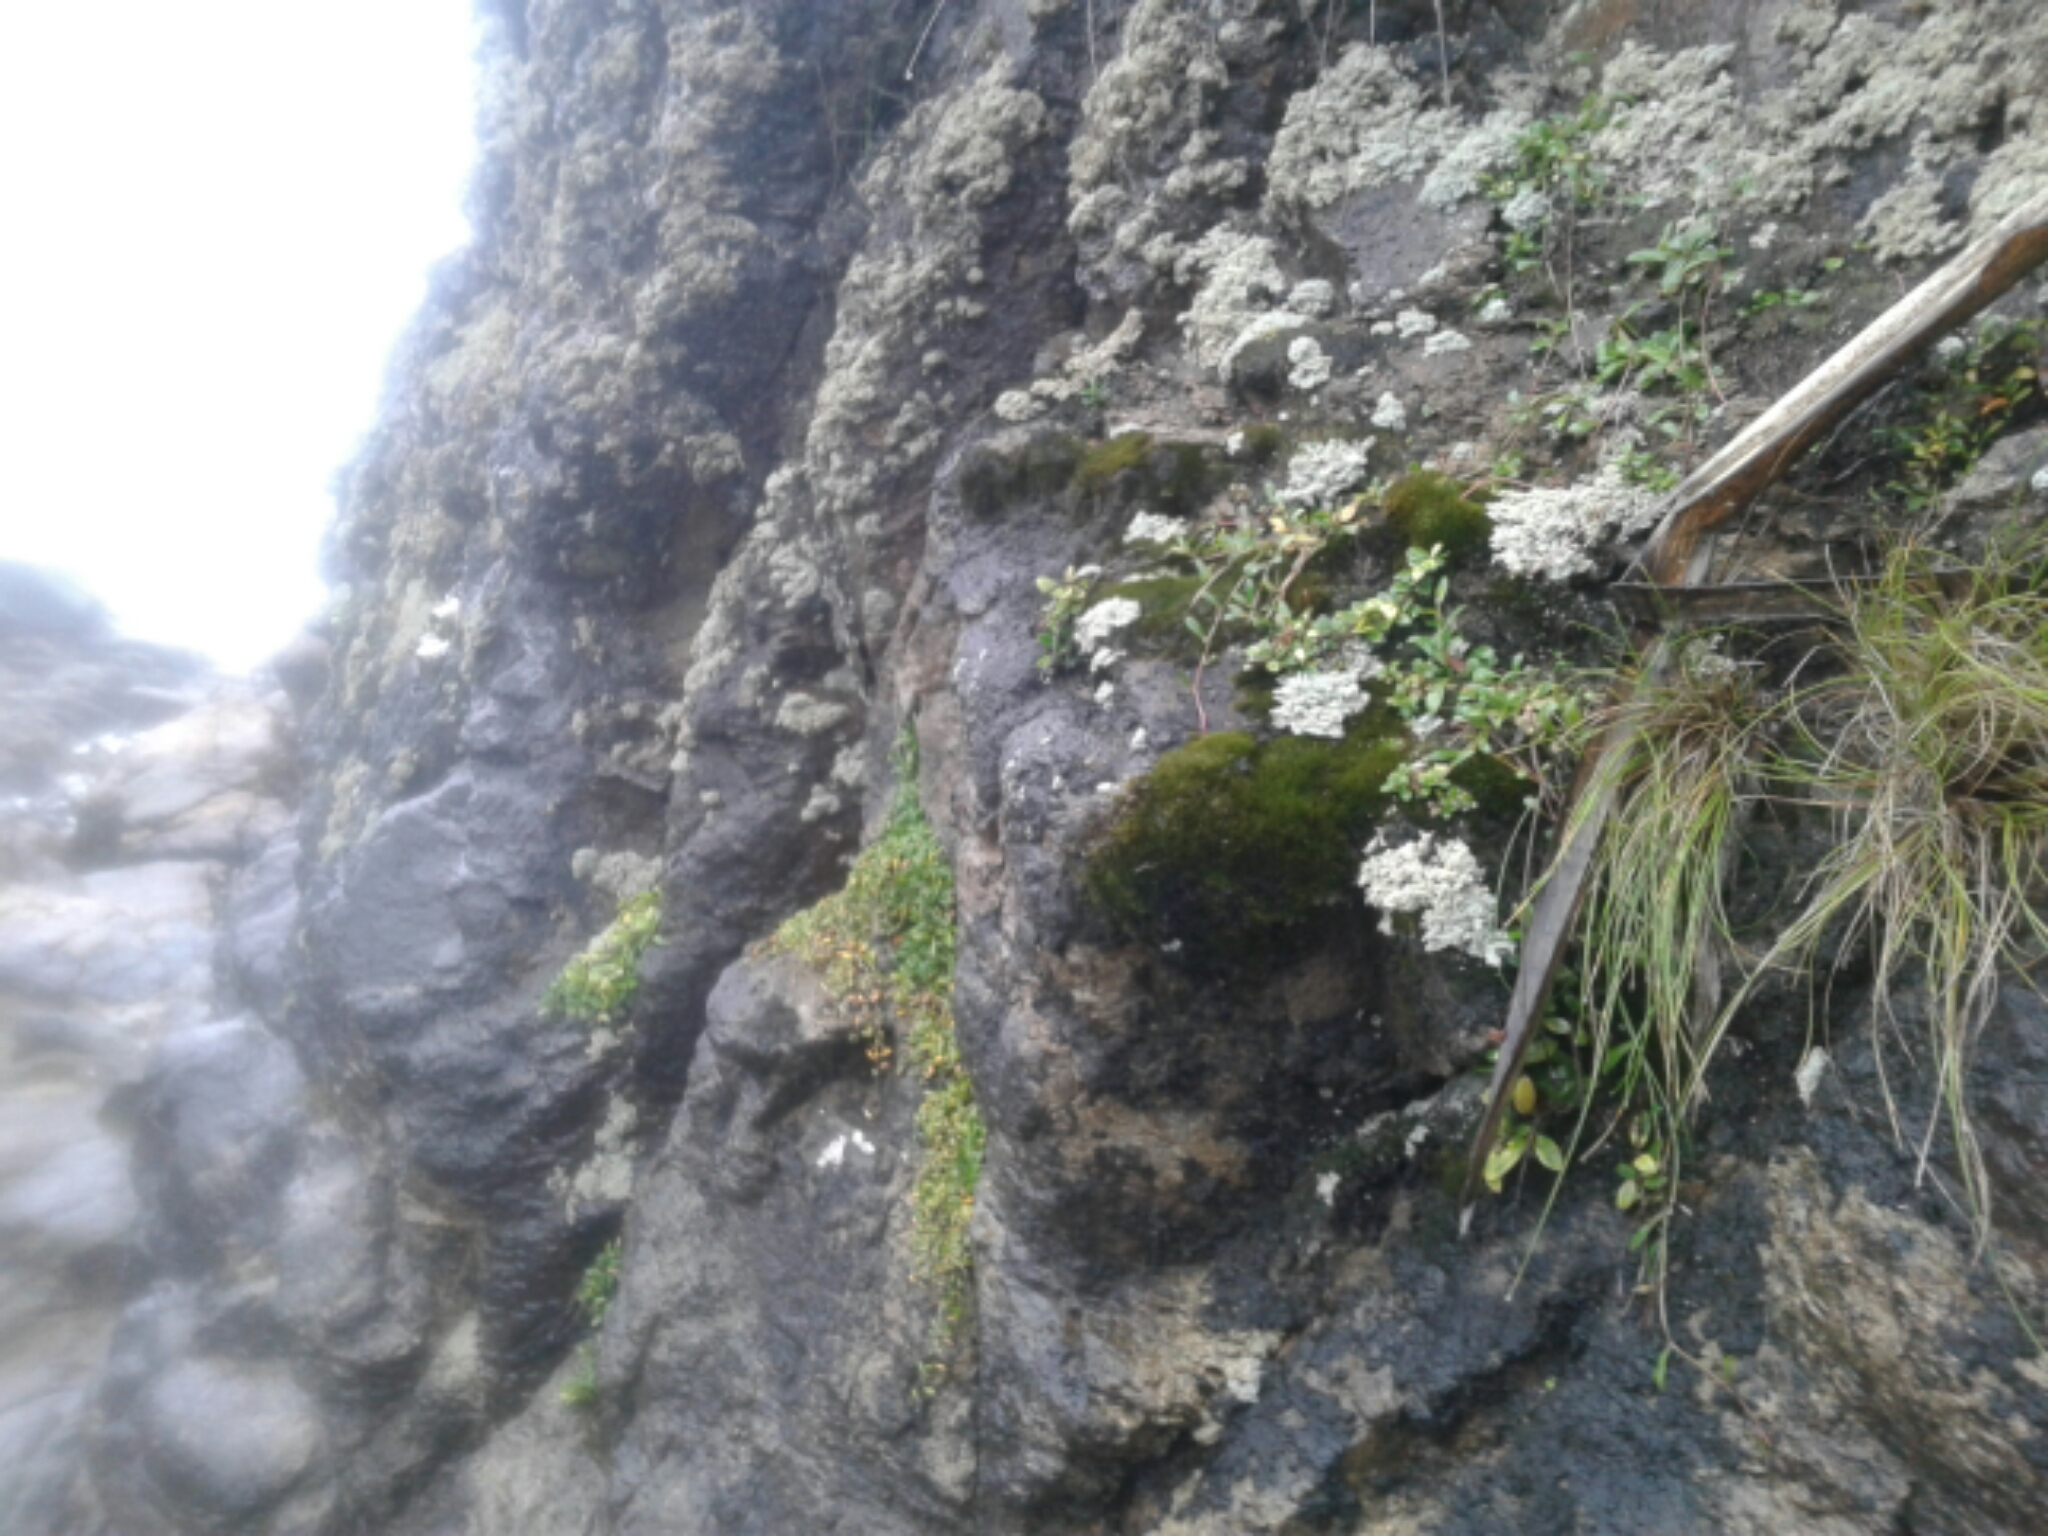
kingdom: Plantae
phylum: Tracheophyta
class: Magnoliopsida
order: Caryophyllales
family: Caryophyllaceae
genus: Colobanthus
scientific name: Colobanthus muelleri
